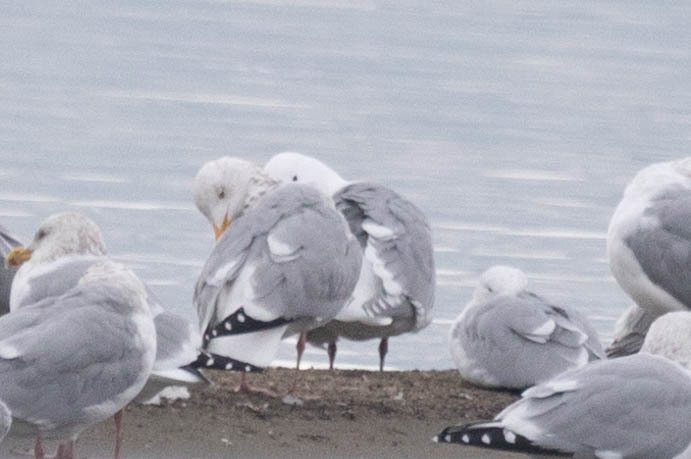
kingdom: Animalia
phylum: Chordata
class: Aves
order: Charadriiformes
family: Laridae
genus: Larus
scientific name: Larus glaucescens
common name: Glaucous-winged gull
